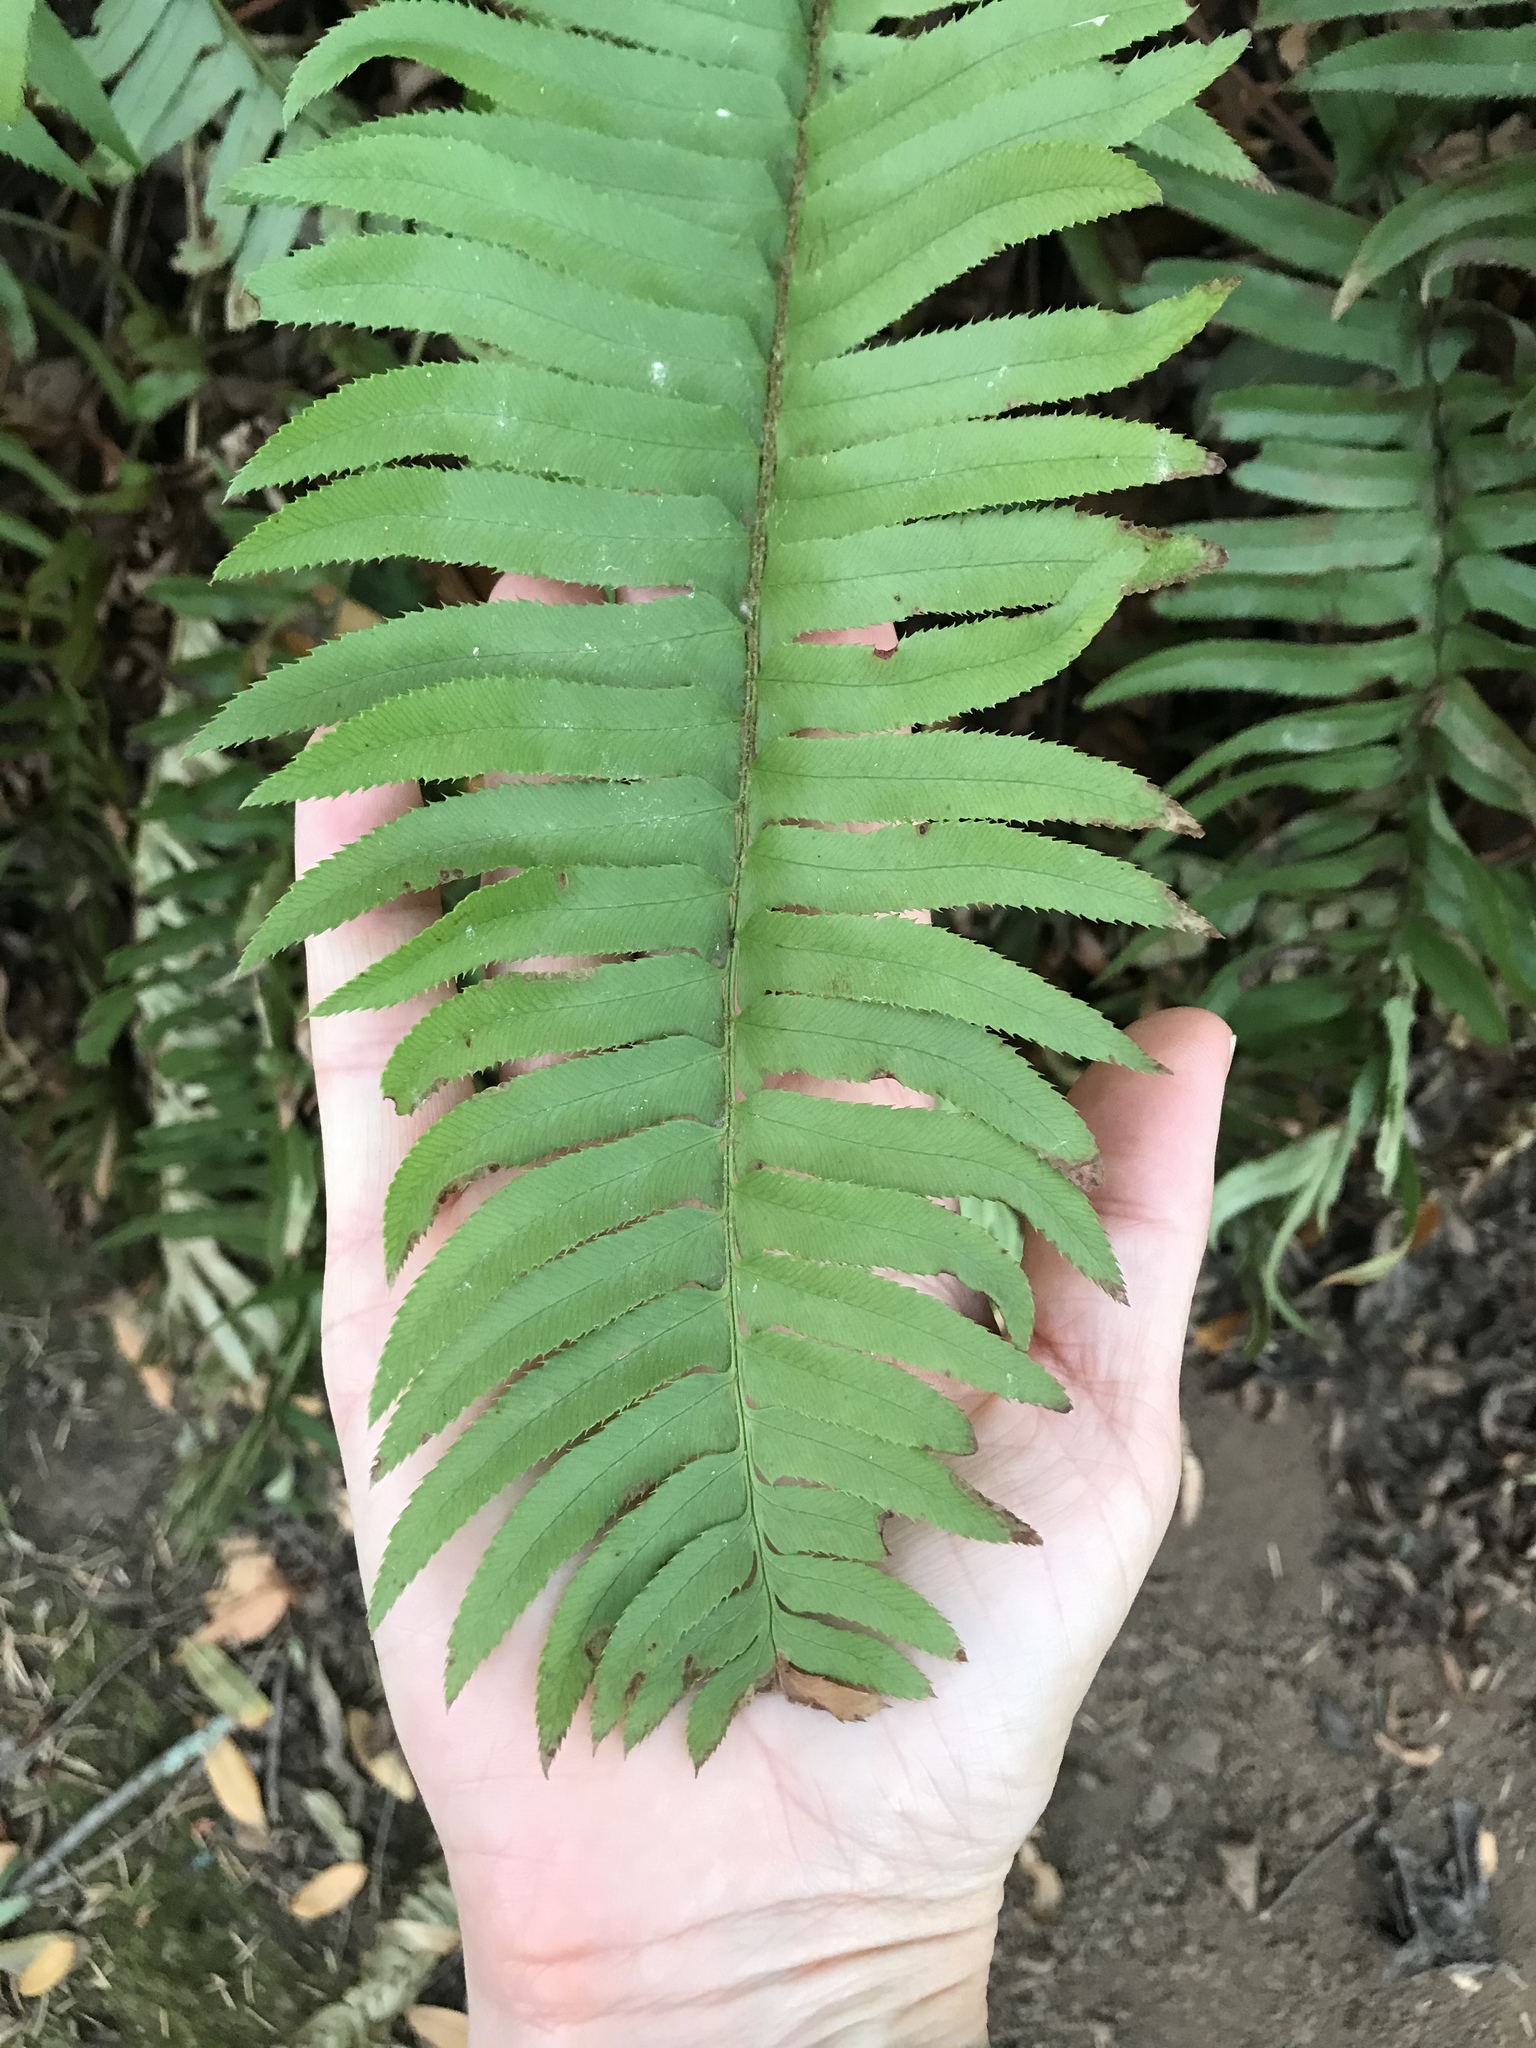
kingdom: Plantae
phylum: Tracheophyta
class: Polypodiopsida
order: Polypodiales
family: Dryopteridaceae
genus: Polystichum
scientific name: Polystichum munitum
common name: Western sword-fern
